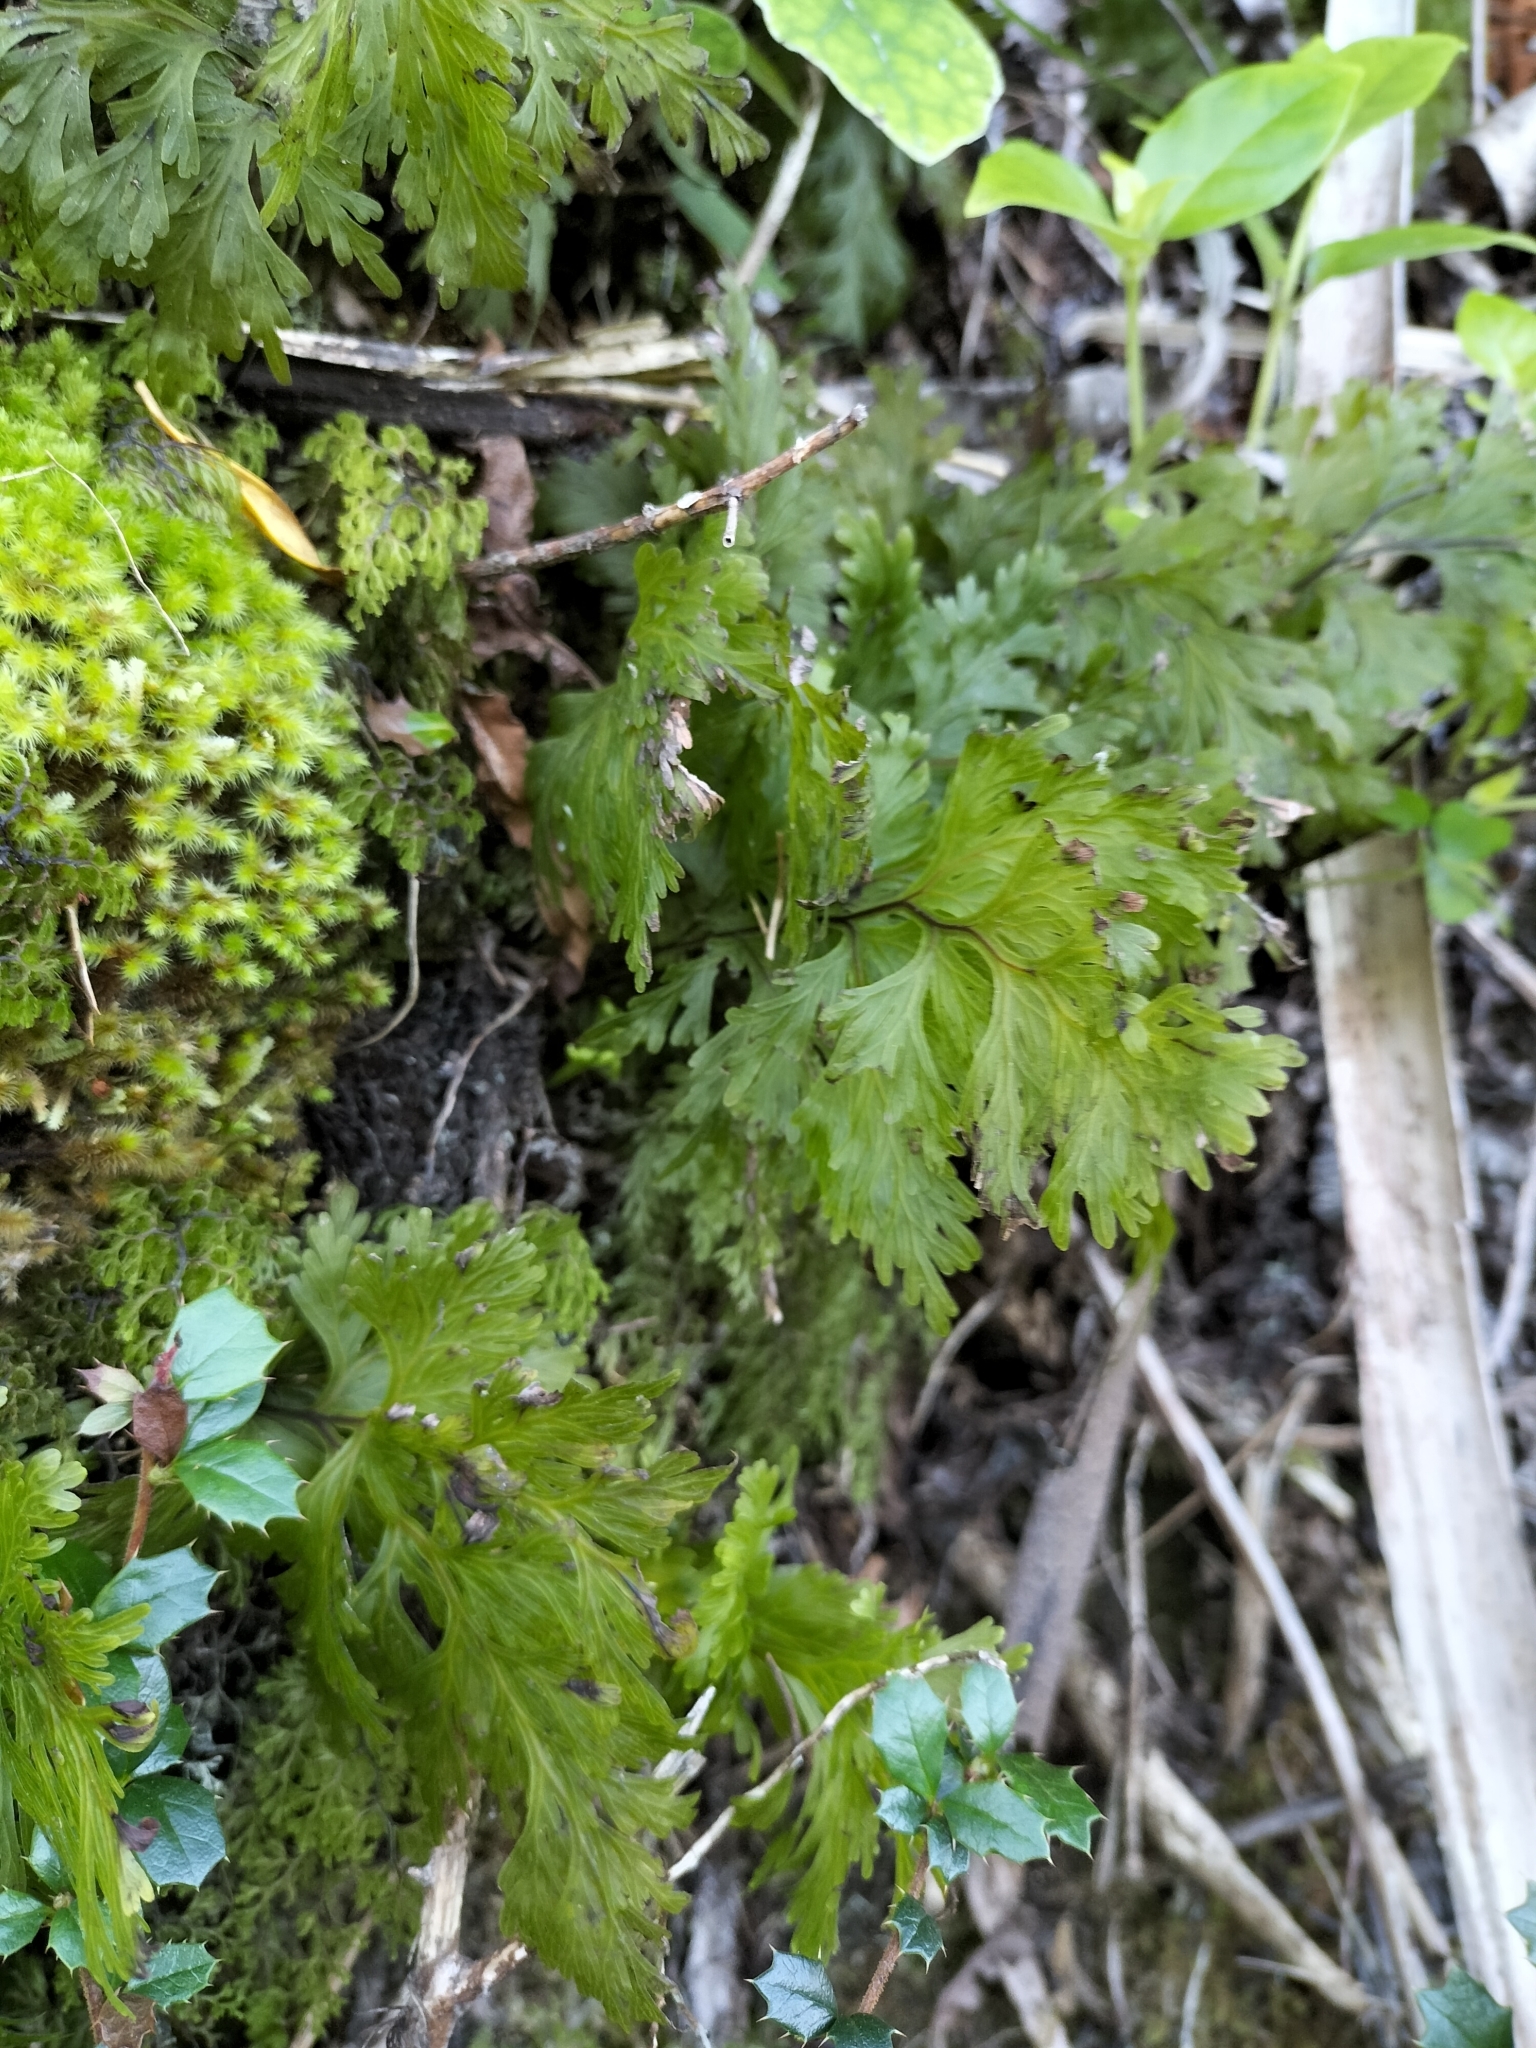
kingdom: Plantae
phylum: Tracheophyta
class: Polypodiopsida
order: Hymenophyllales
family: Hymenophyllaceae
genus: Hymenophyllum
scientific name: Hymenophyllum dilatatum
